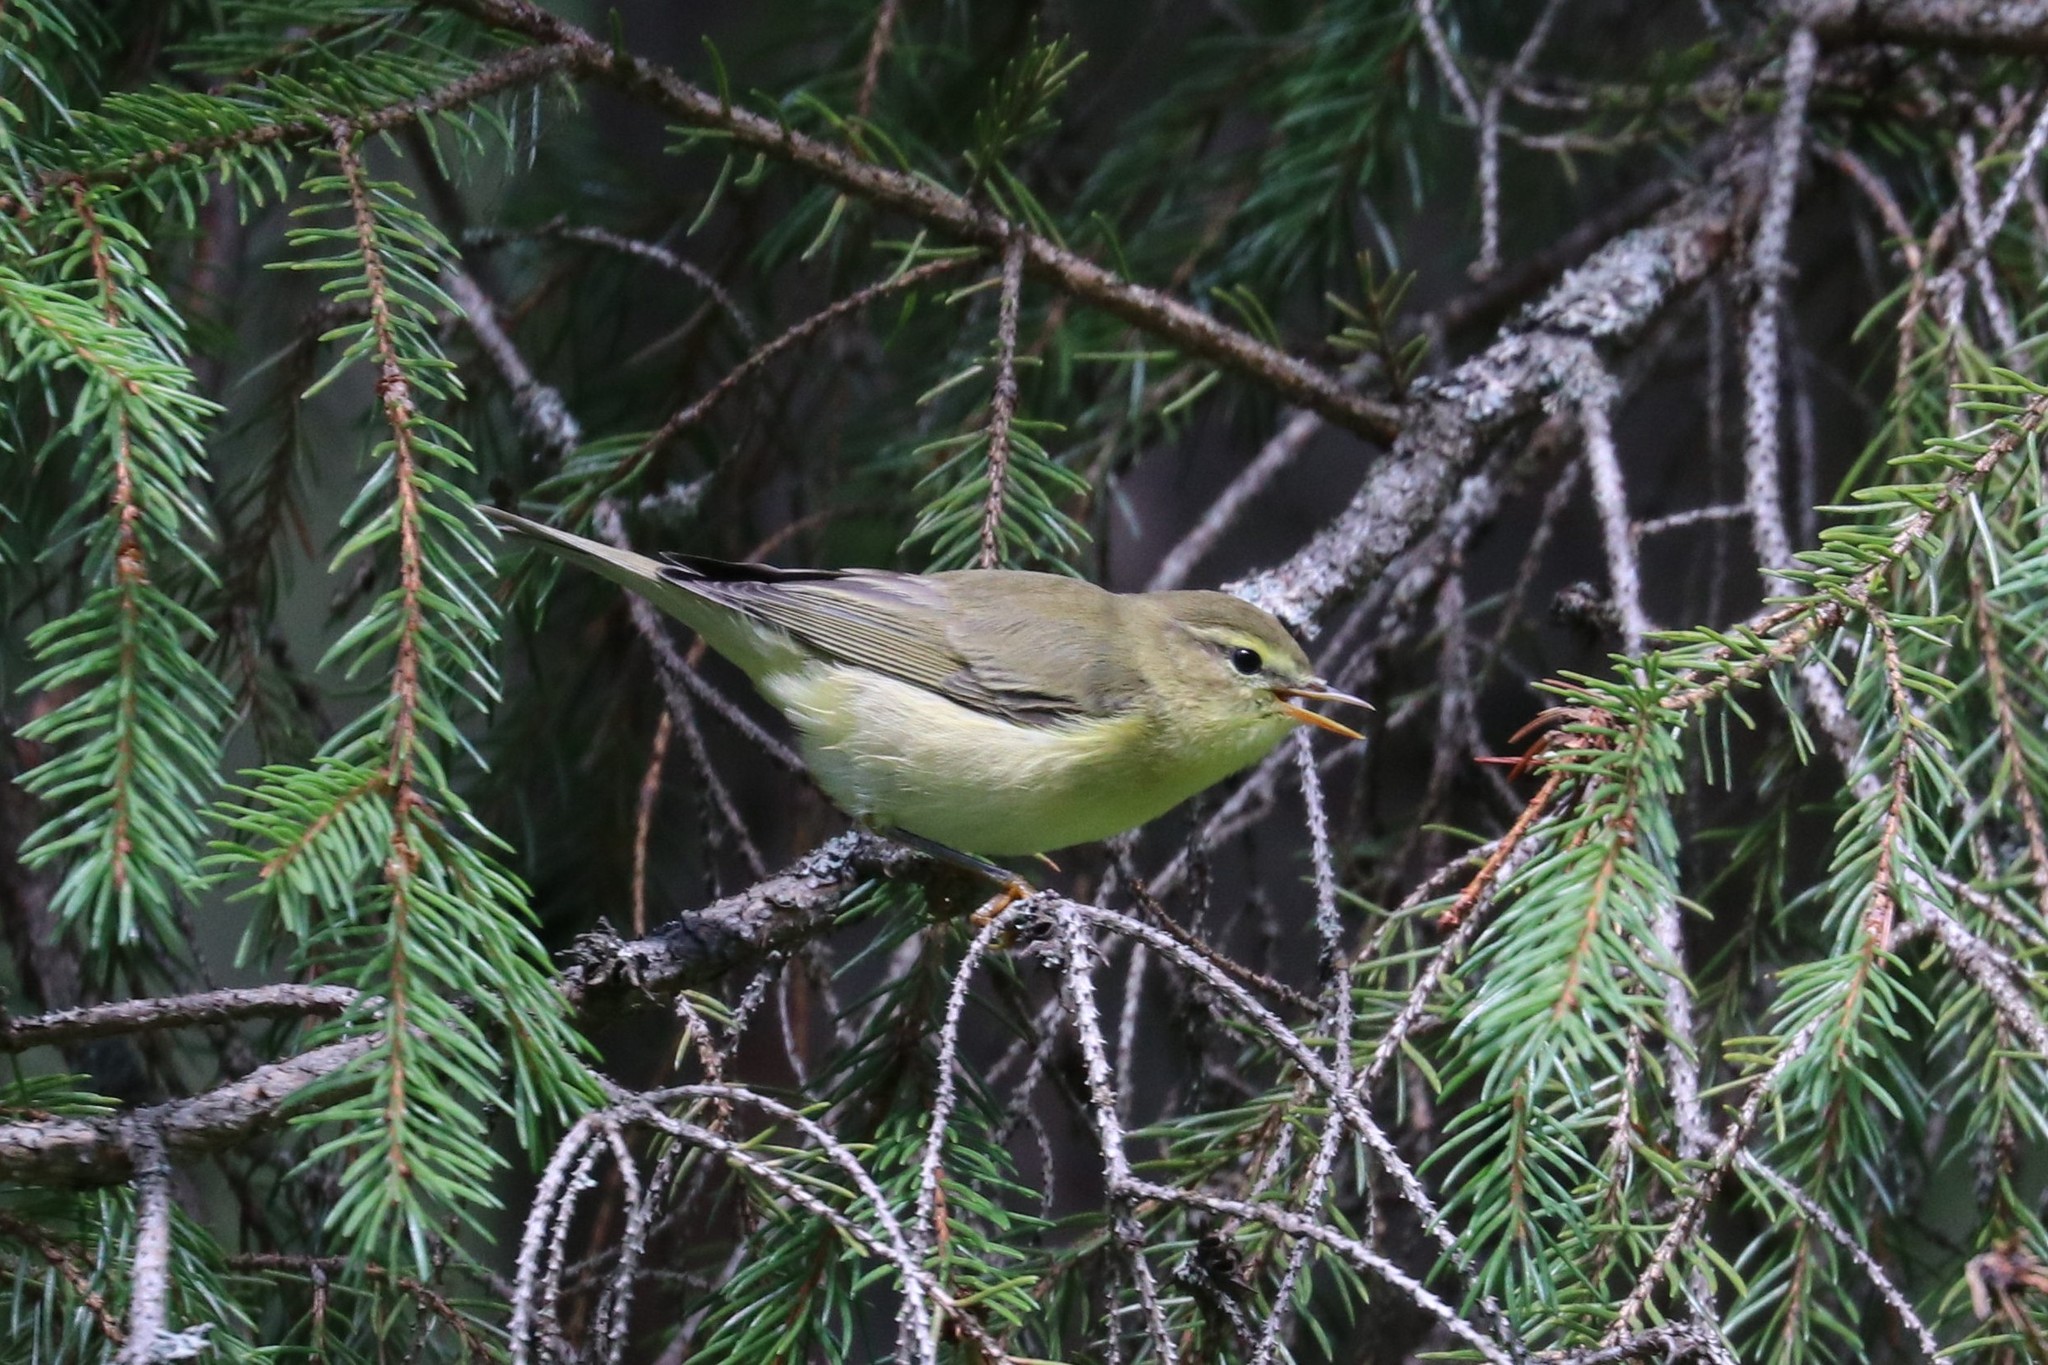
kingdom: Animalia
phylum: Chordata
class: Aves
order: Passeriformes
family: Phylloscopidae
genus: Phylloscopus
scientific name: Phylloscopus trochilus
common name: Willow warbler
